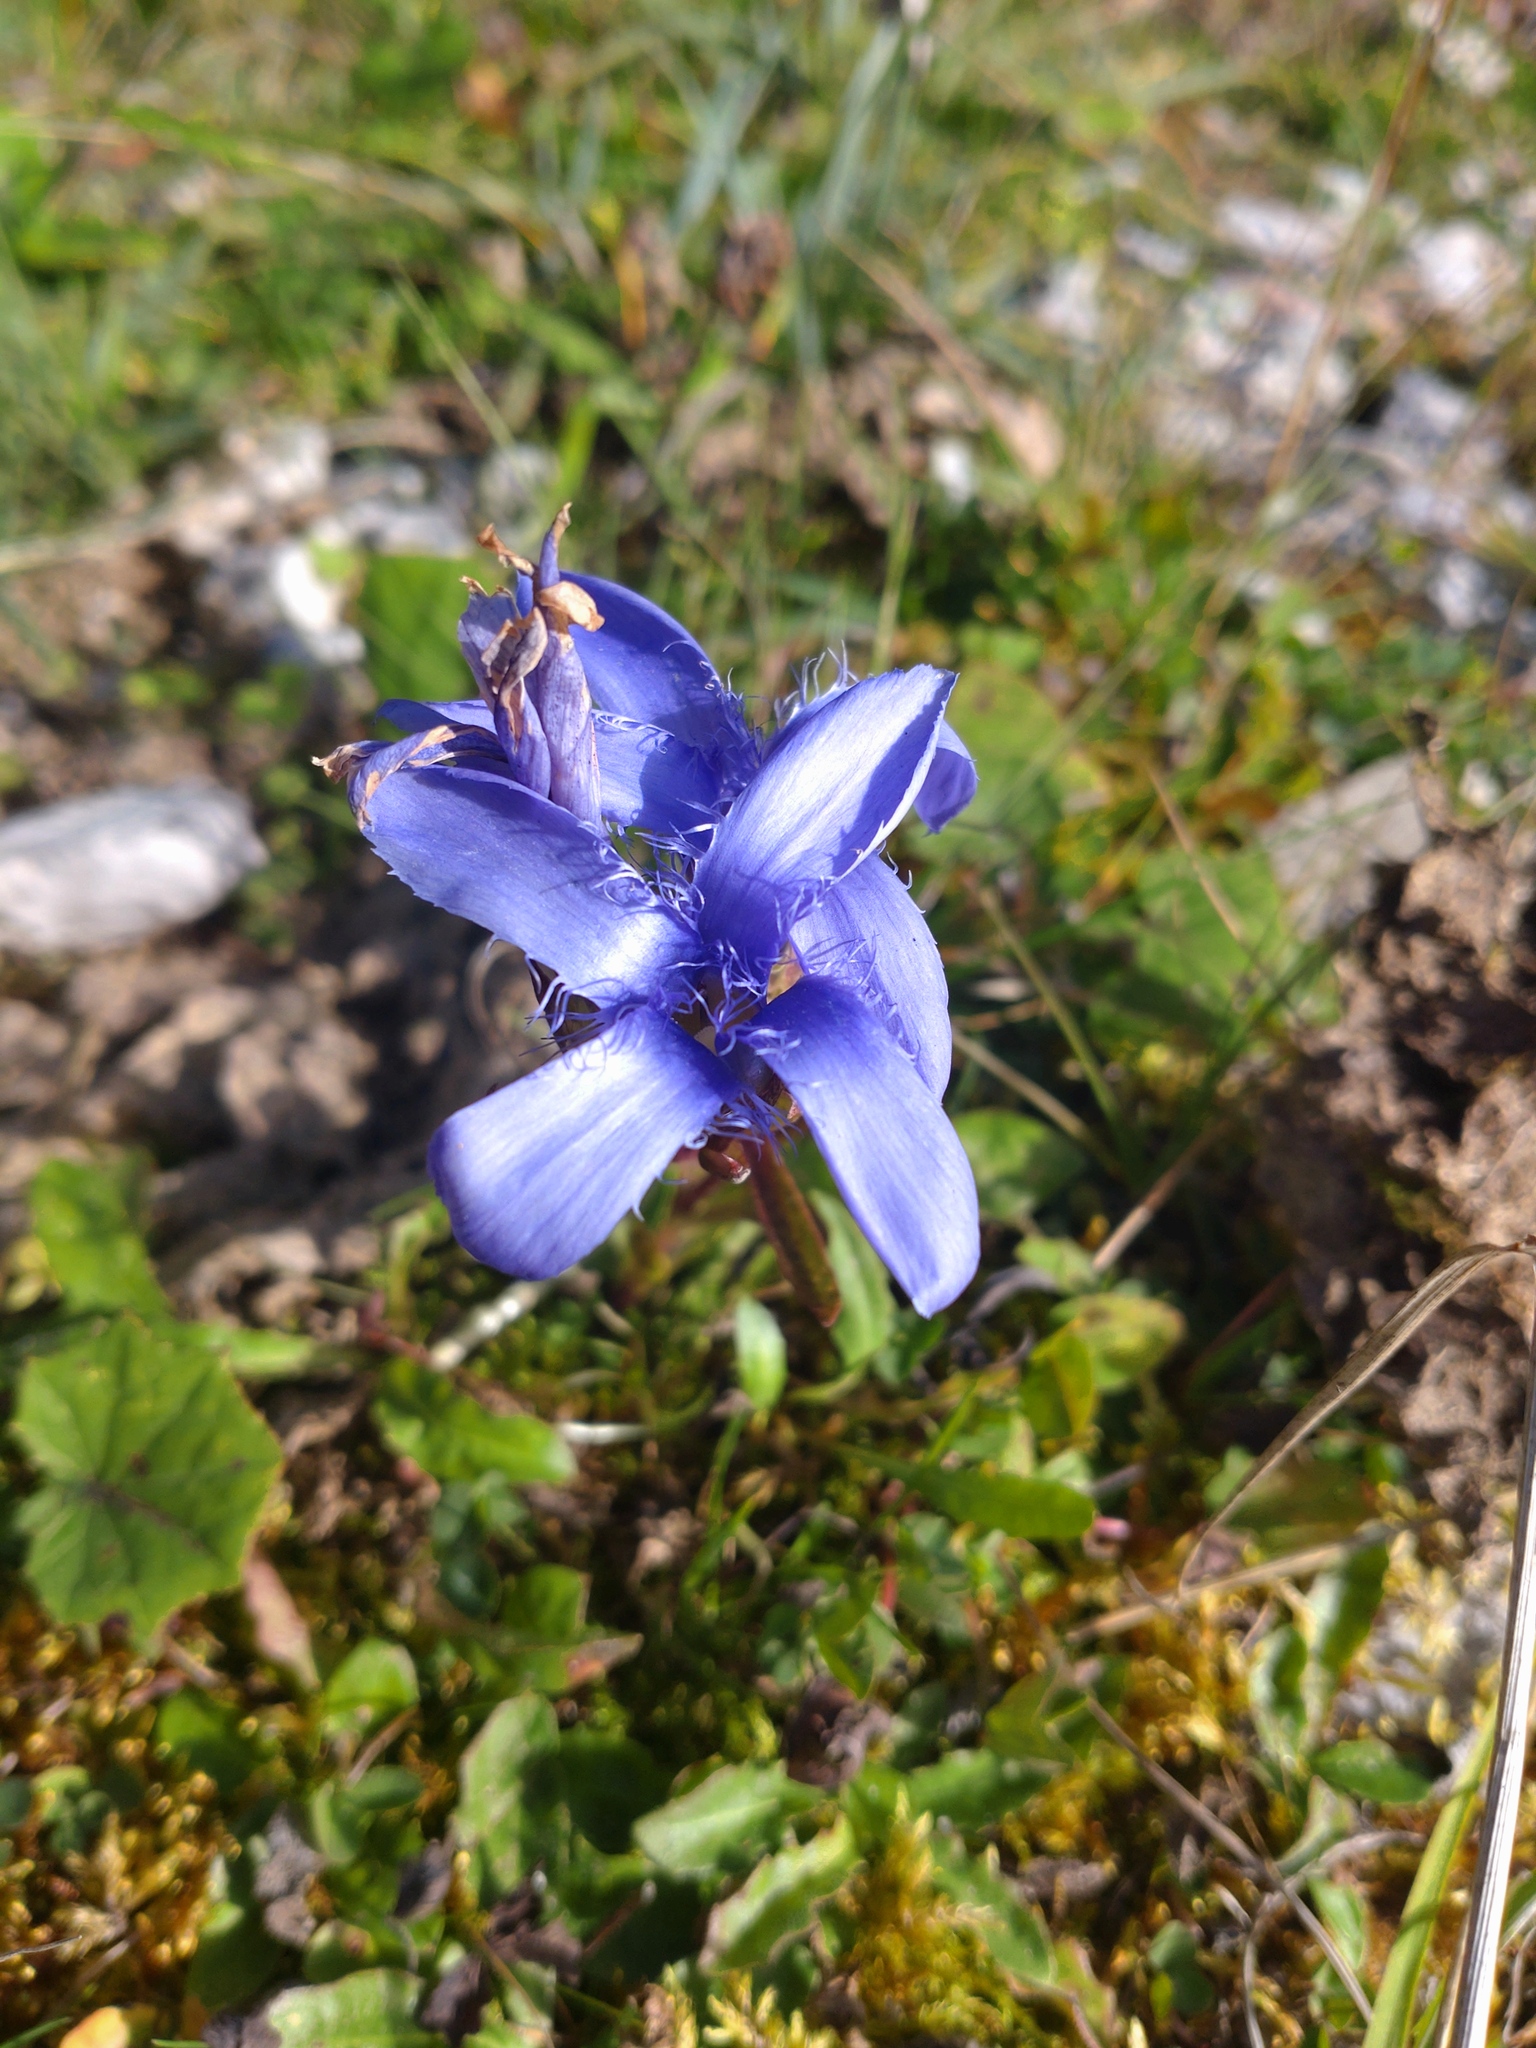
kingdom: Plantae
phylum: Tracheophyta
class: Magnoliopsida
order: Gentianales
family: Gentianaceae
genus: Gentianopsis
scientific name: Gentianopsis ciliata
